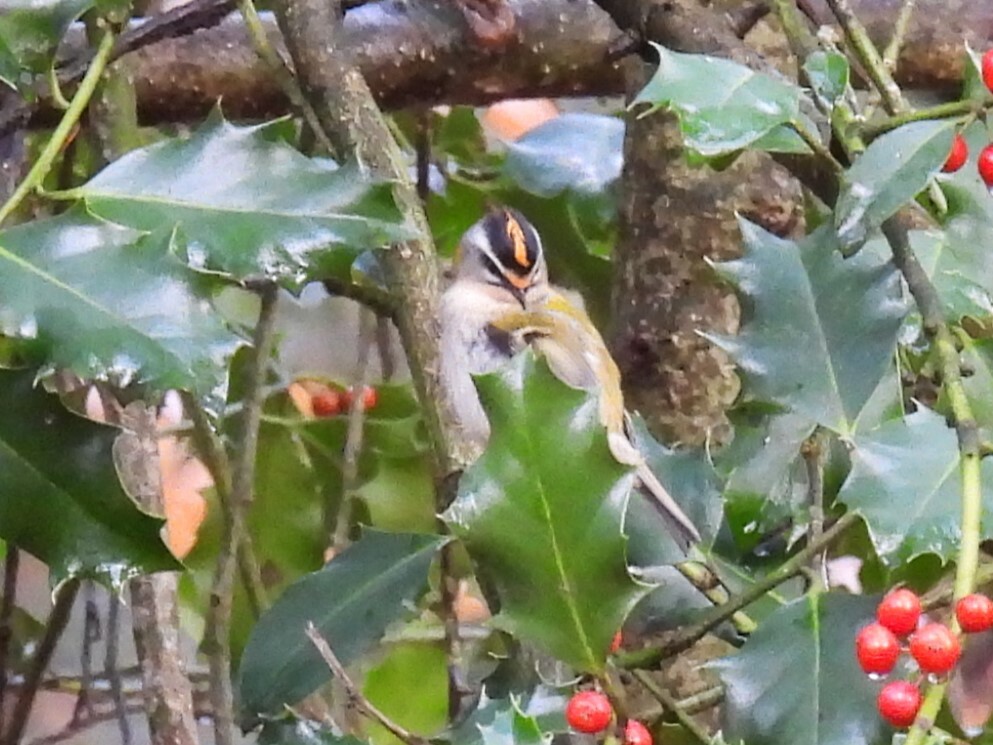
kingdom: Animalia
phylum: Chordata
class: Aves
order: Passeriformes
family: Regulidae
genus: Regulus
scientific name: Regulus ignicapilla
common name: Firecrest
